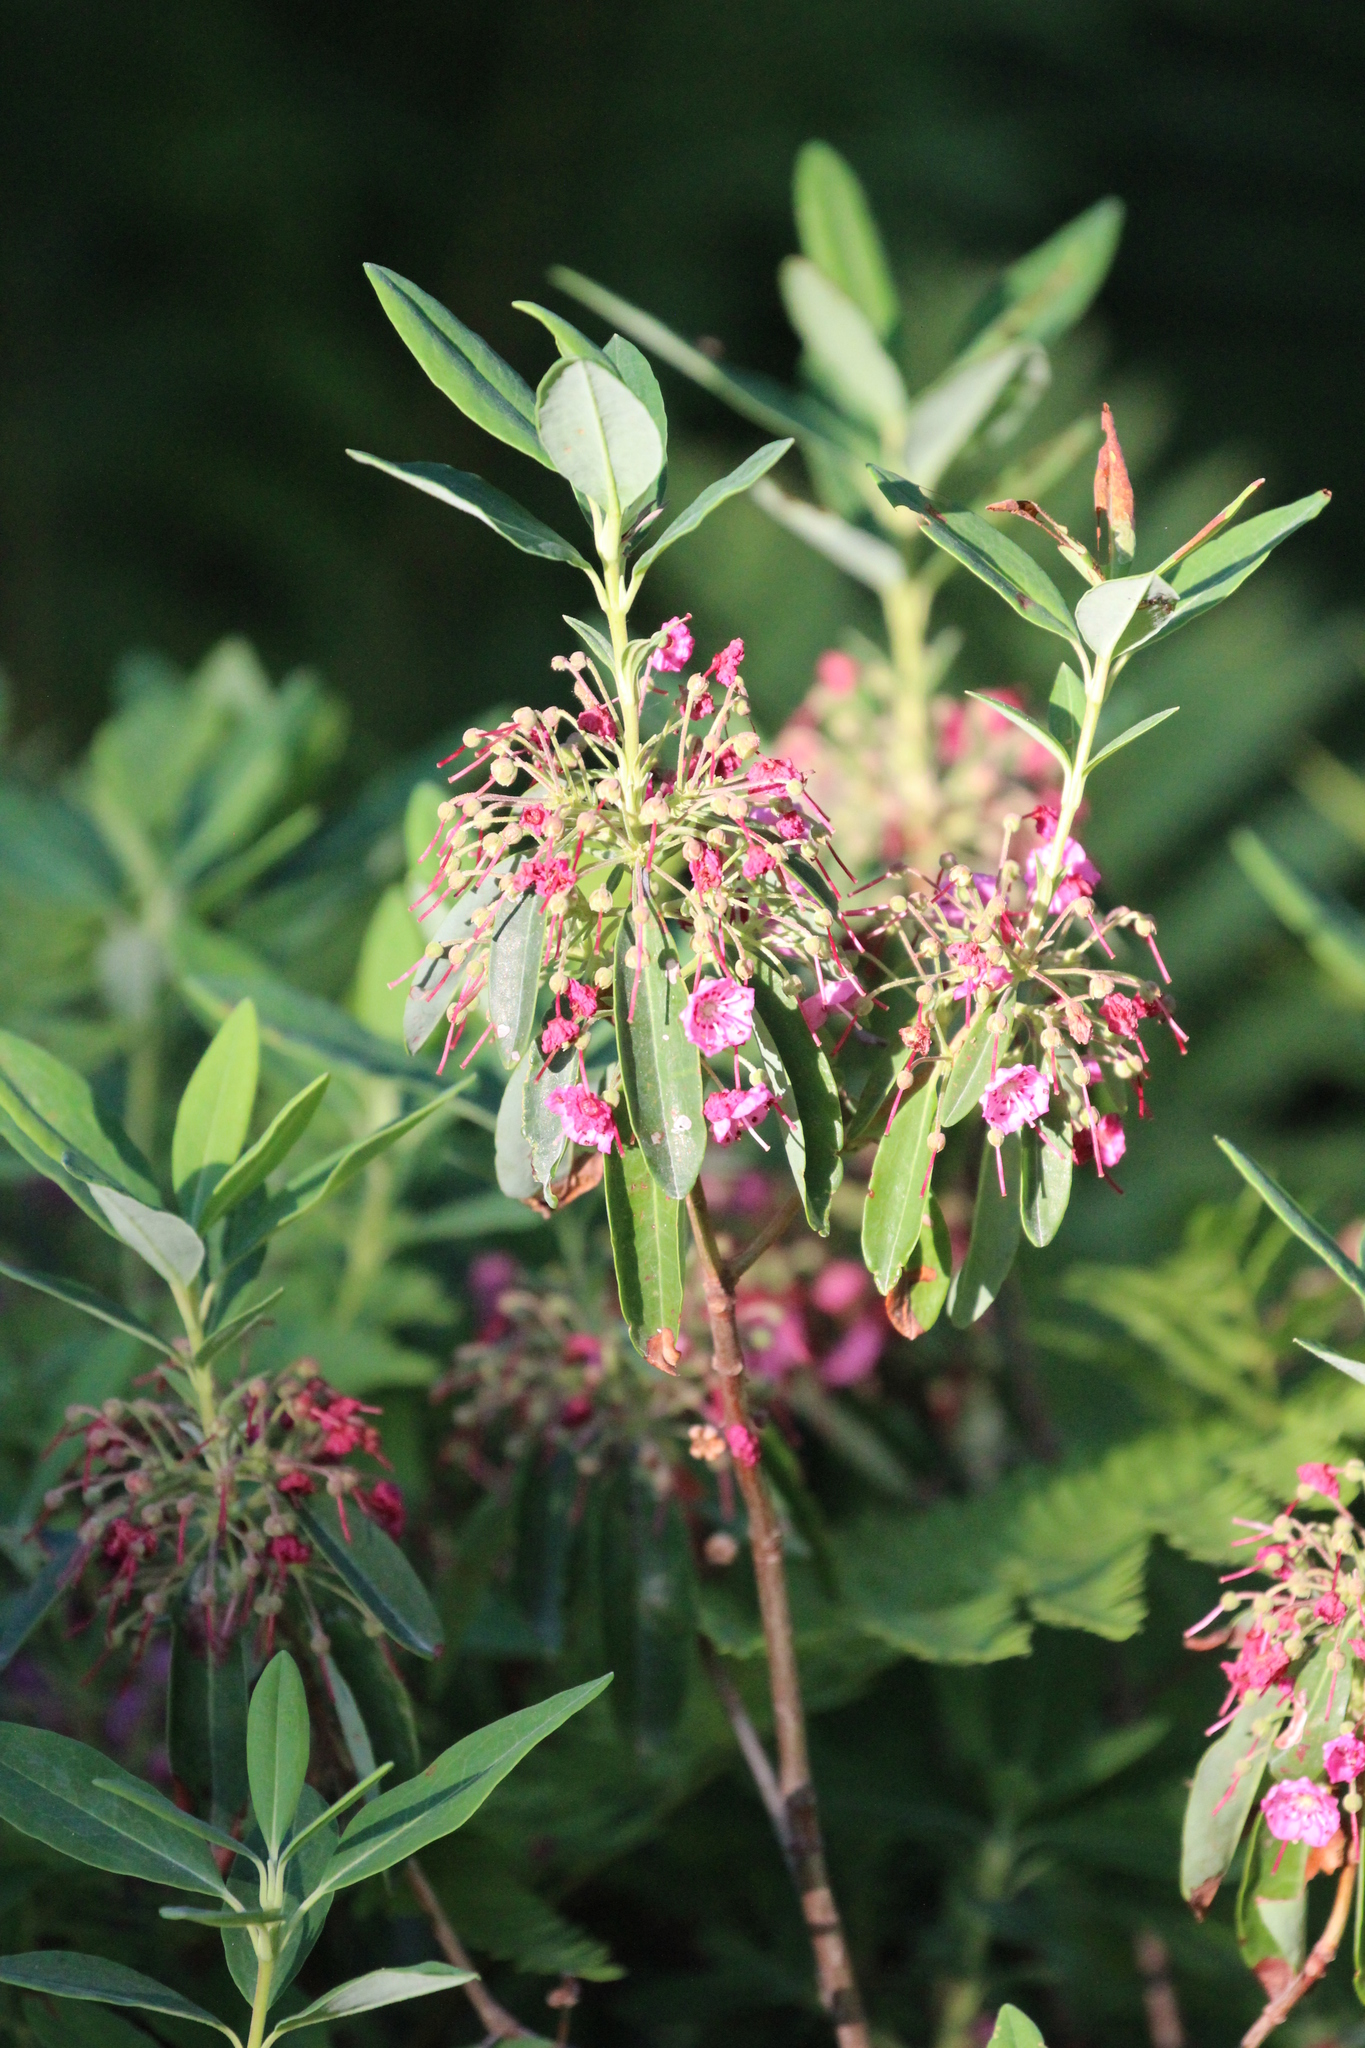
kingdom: Plantae
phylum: Tracheophyta
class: Magnoliopsida
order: Ericales
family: Ericaceae
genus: Kalmia
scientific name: Kalmia angustifolia
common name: Sheep-laurel
